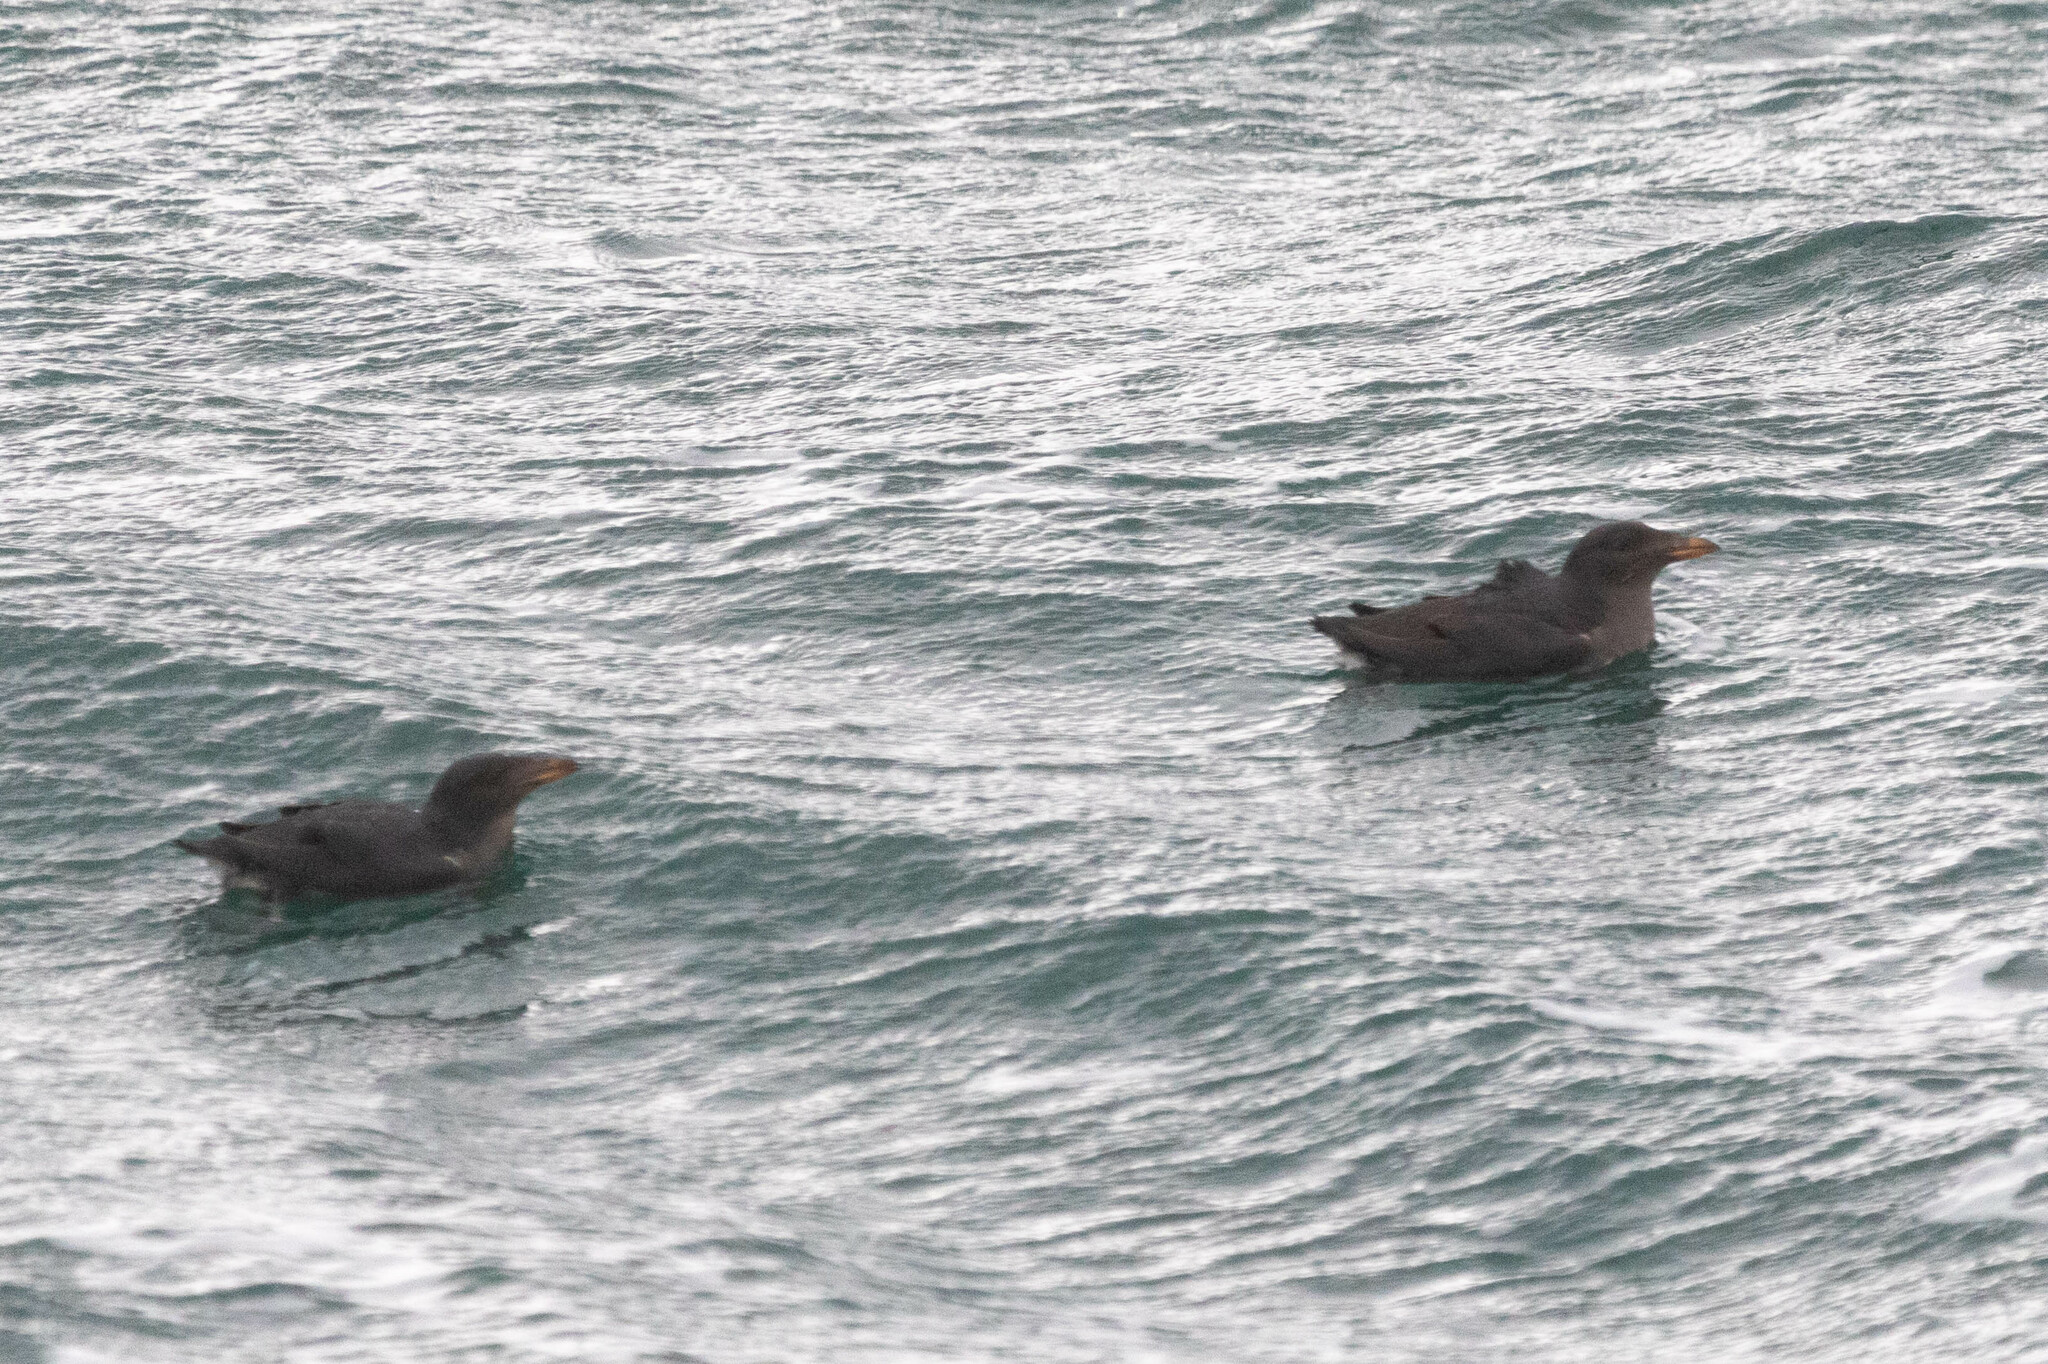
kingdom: Animalia
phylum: Chordata
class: Aves
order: Charadriiformes
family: Alcidae
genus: Cerorhinca
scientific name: Cerorhinca monocerata
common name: Rhinoceros auklet
